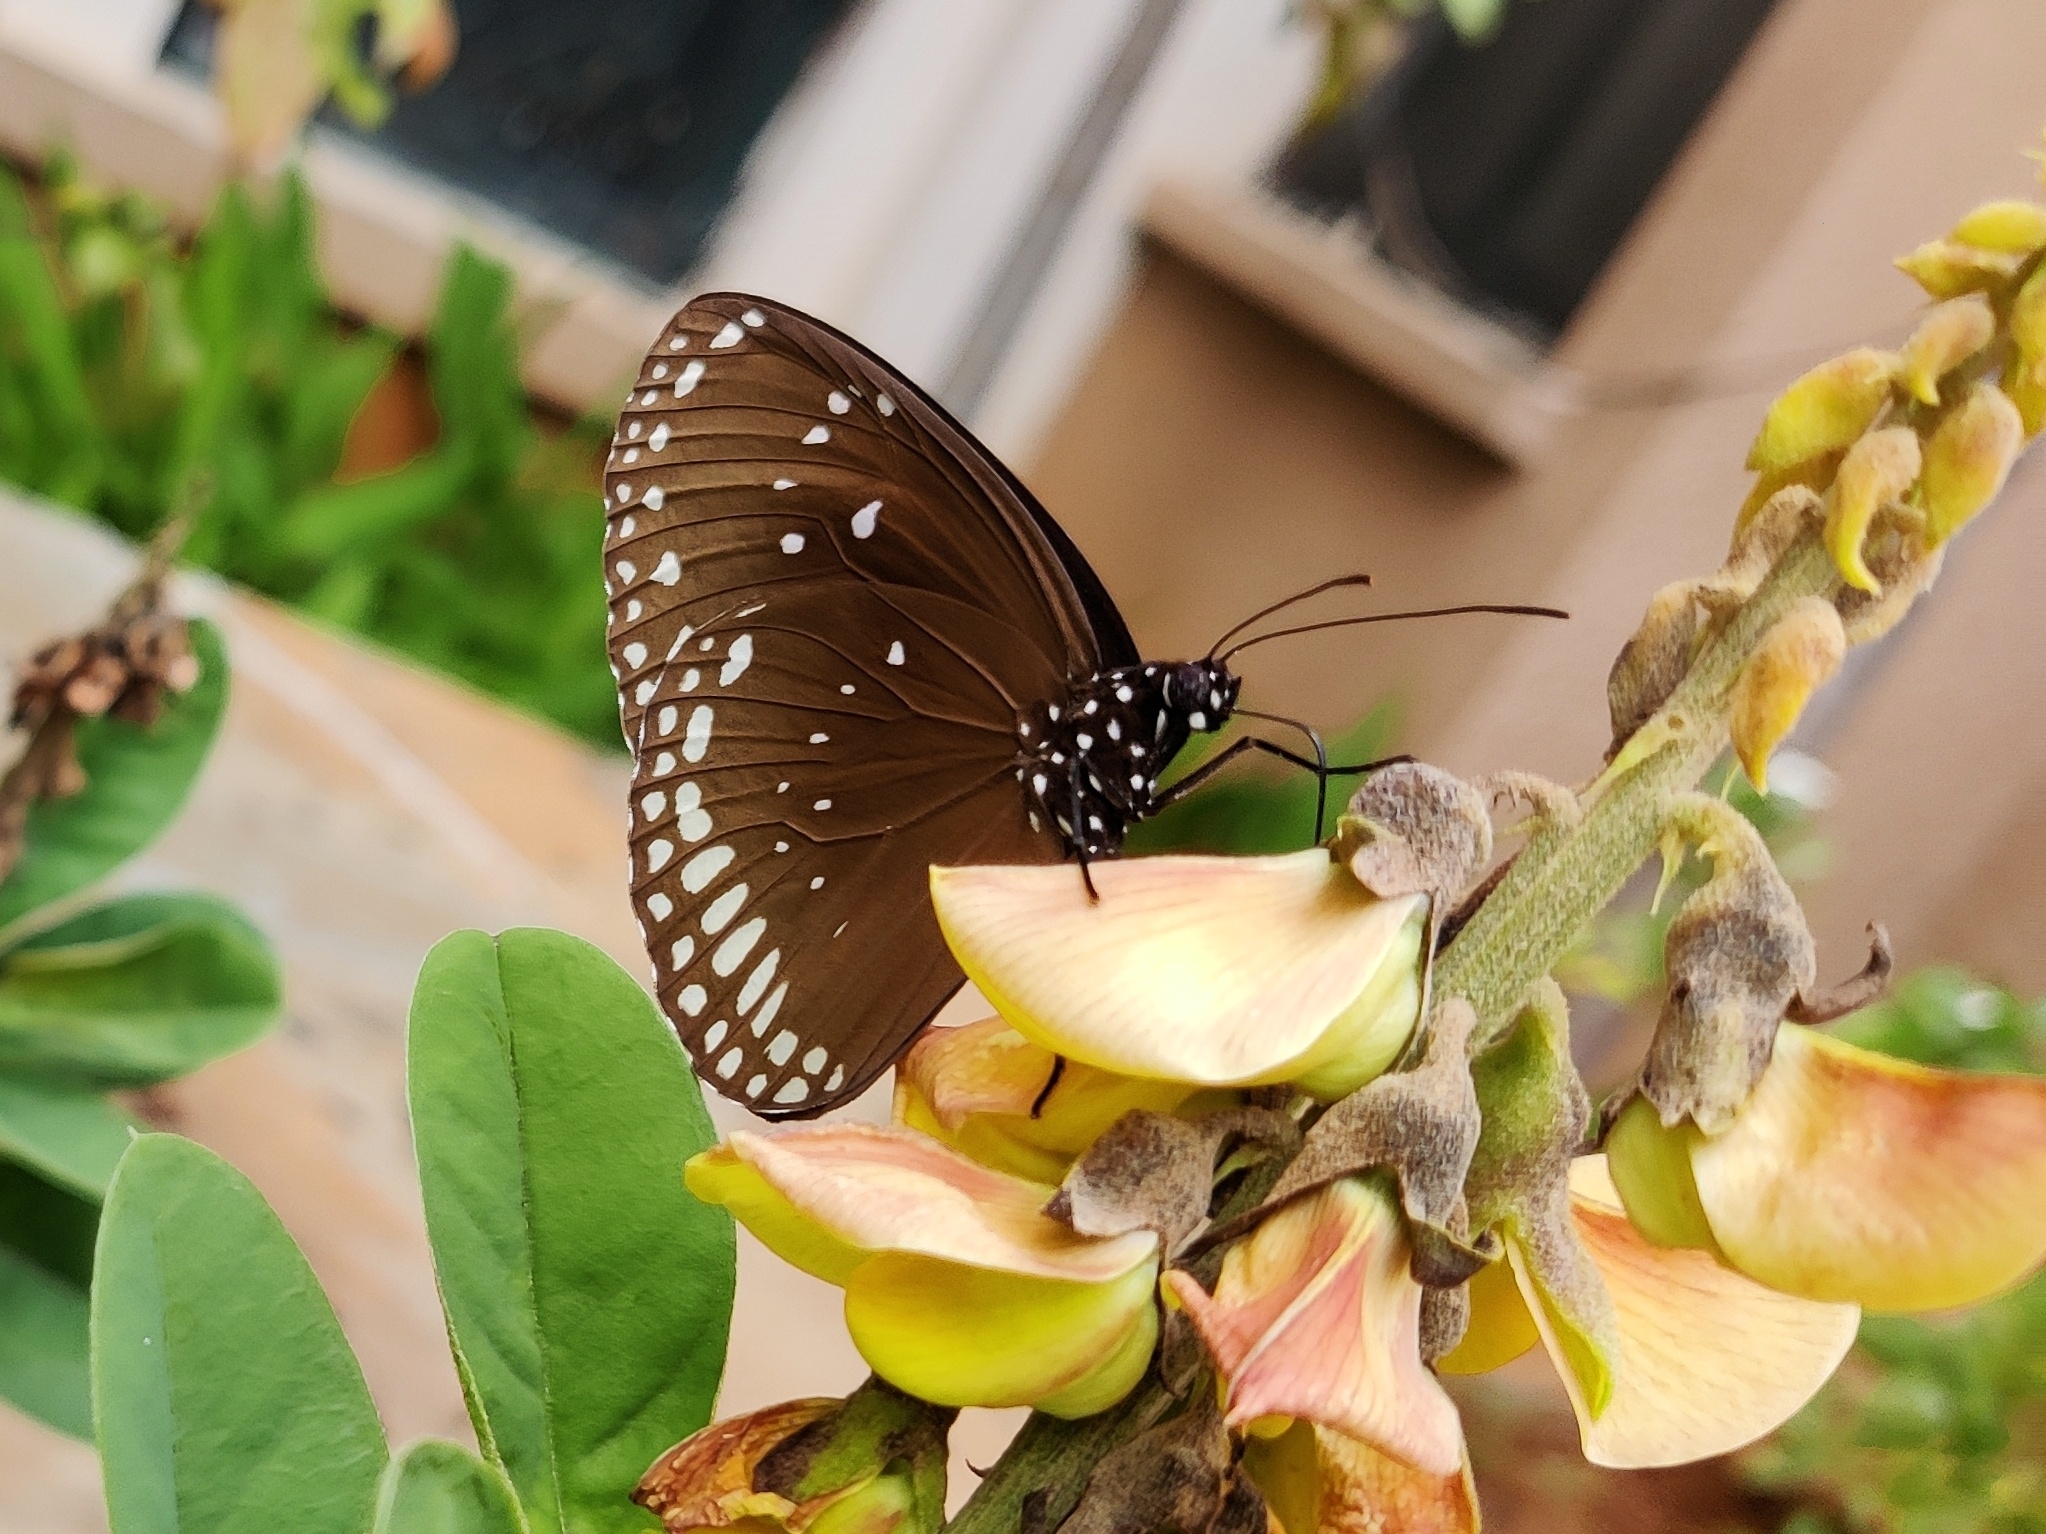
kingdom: Animalia
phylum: Arthropoda
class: Insecta
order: Lepidoptera
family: Nymphalidae
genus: Euploea
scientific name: Euploea sylvester
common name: Double-branded crow butterfly
